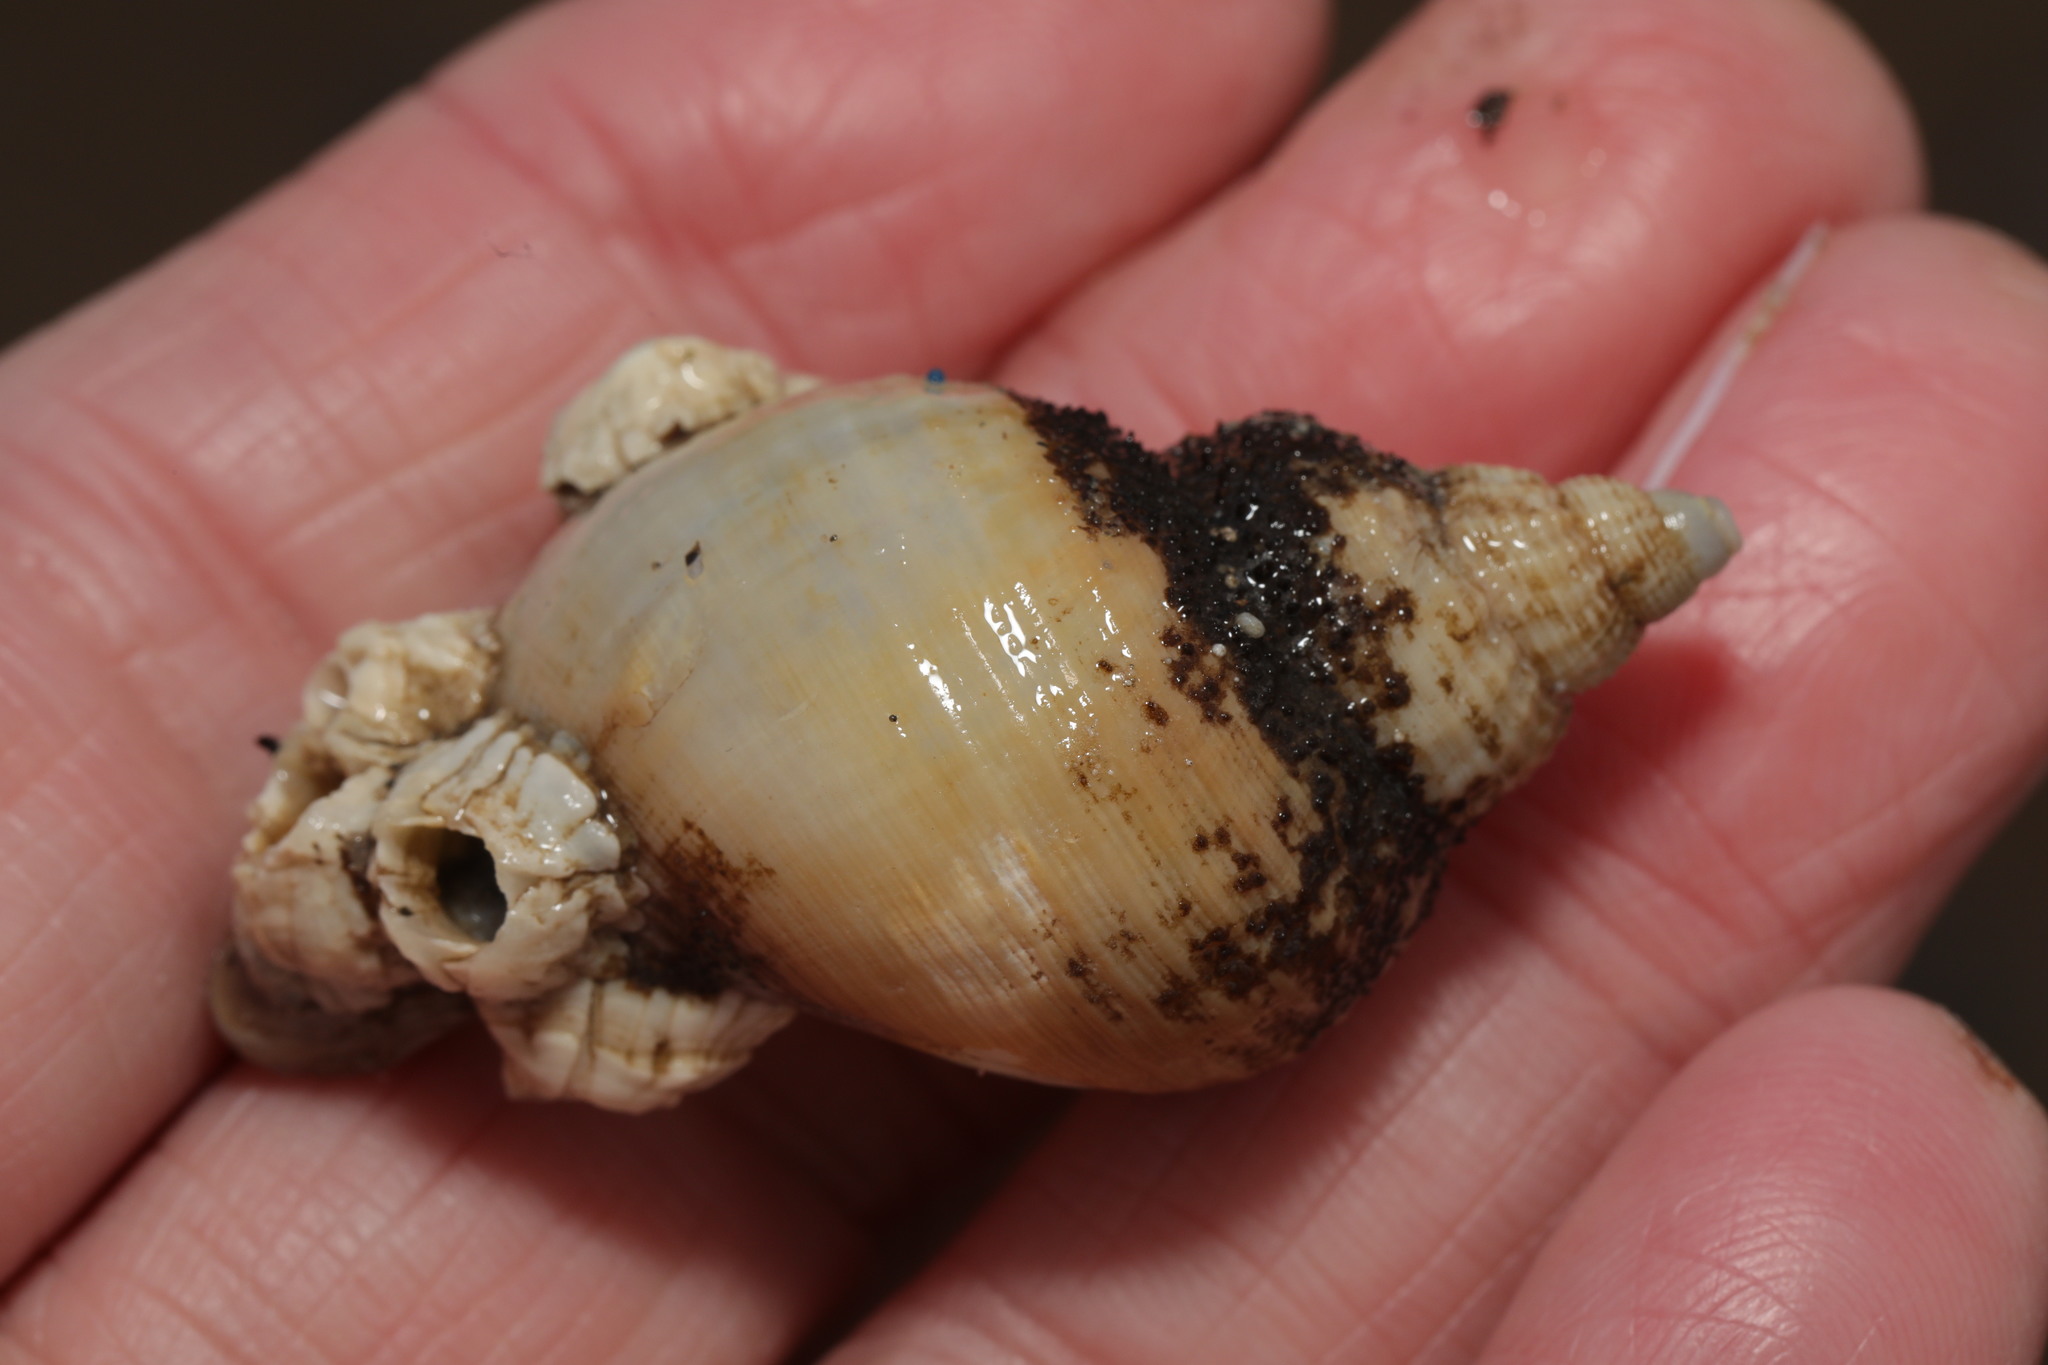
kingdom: Animalia
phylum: Mollusca
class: Gastropoda
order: Neogastropoda
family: Buccinidae
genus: Buccinum
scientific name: Buccinum undatum
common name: Common whelk
